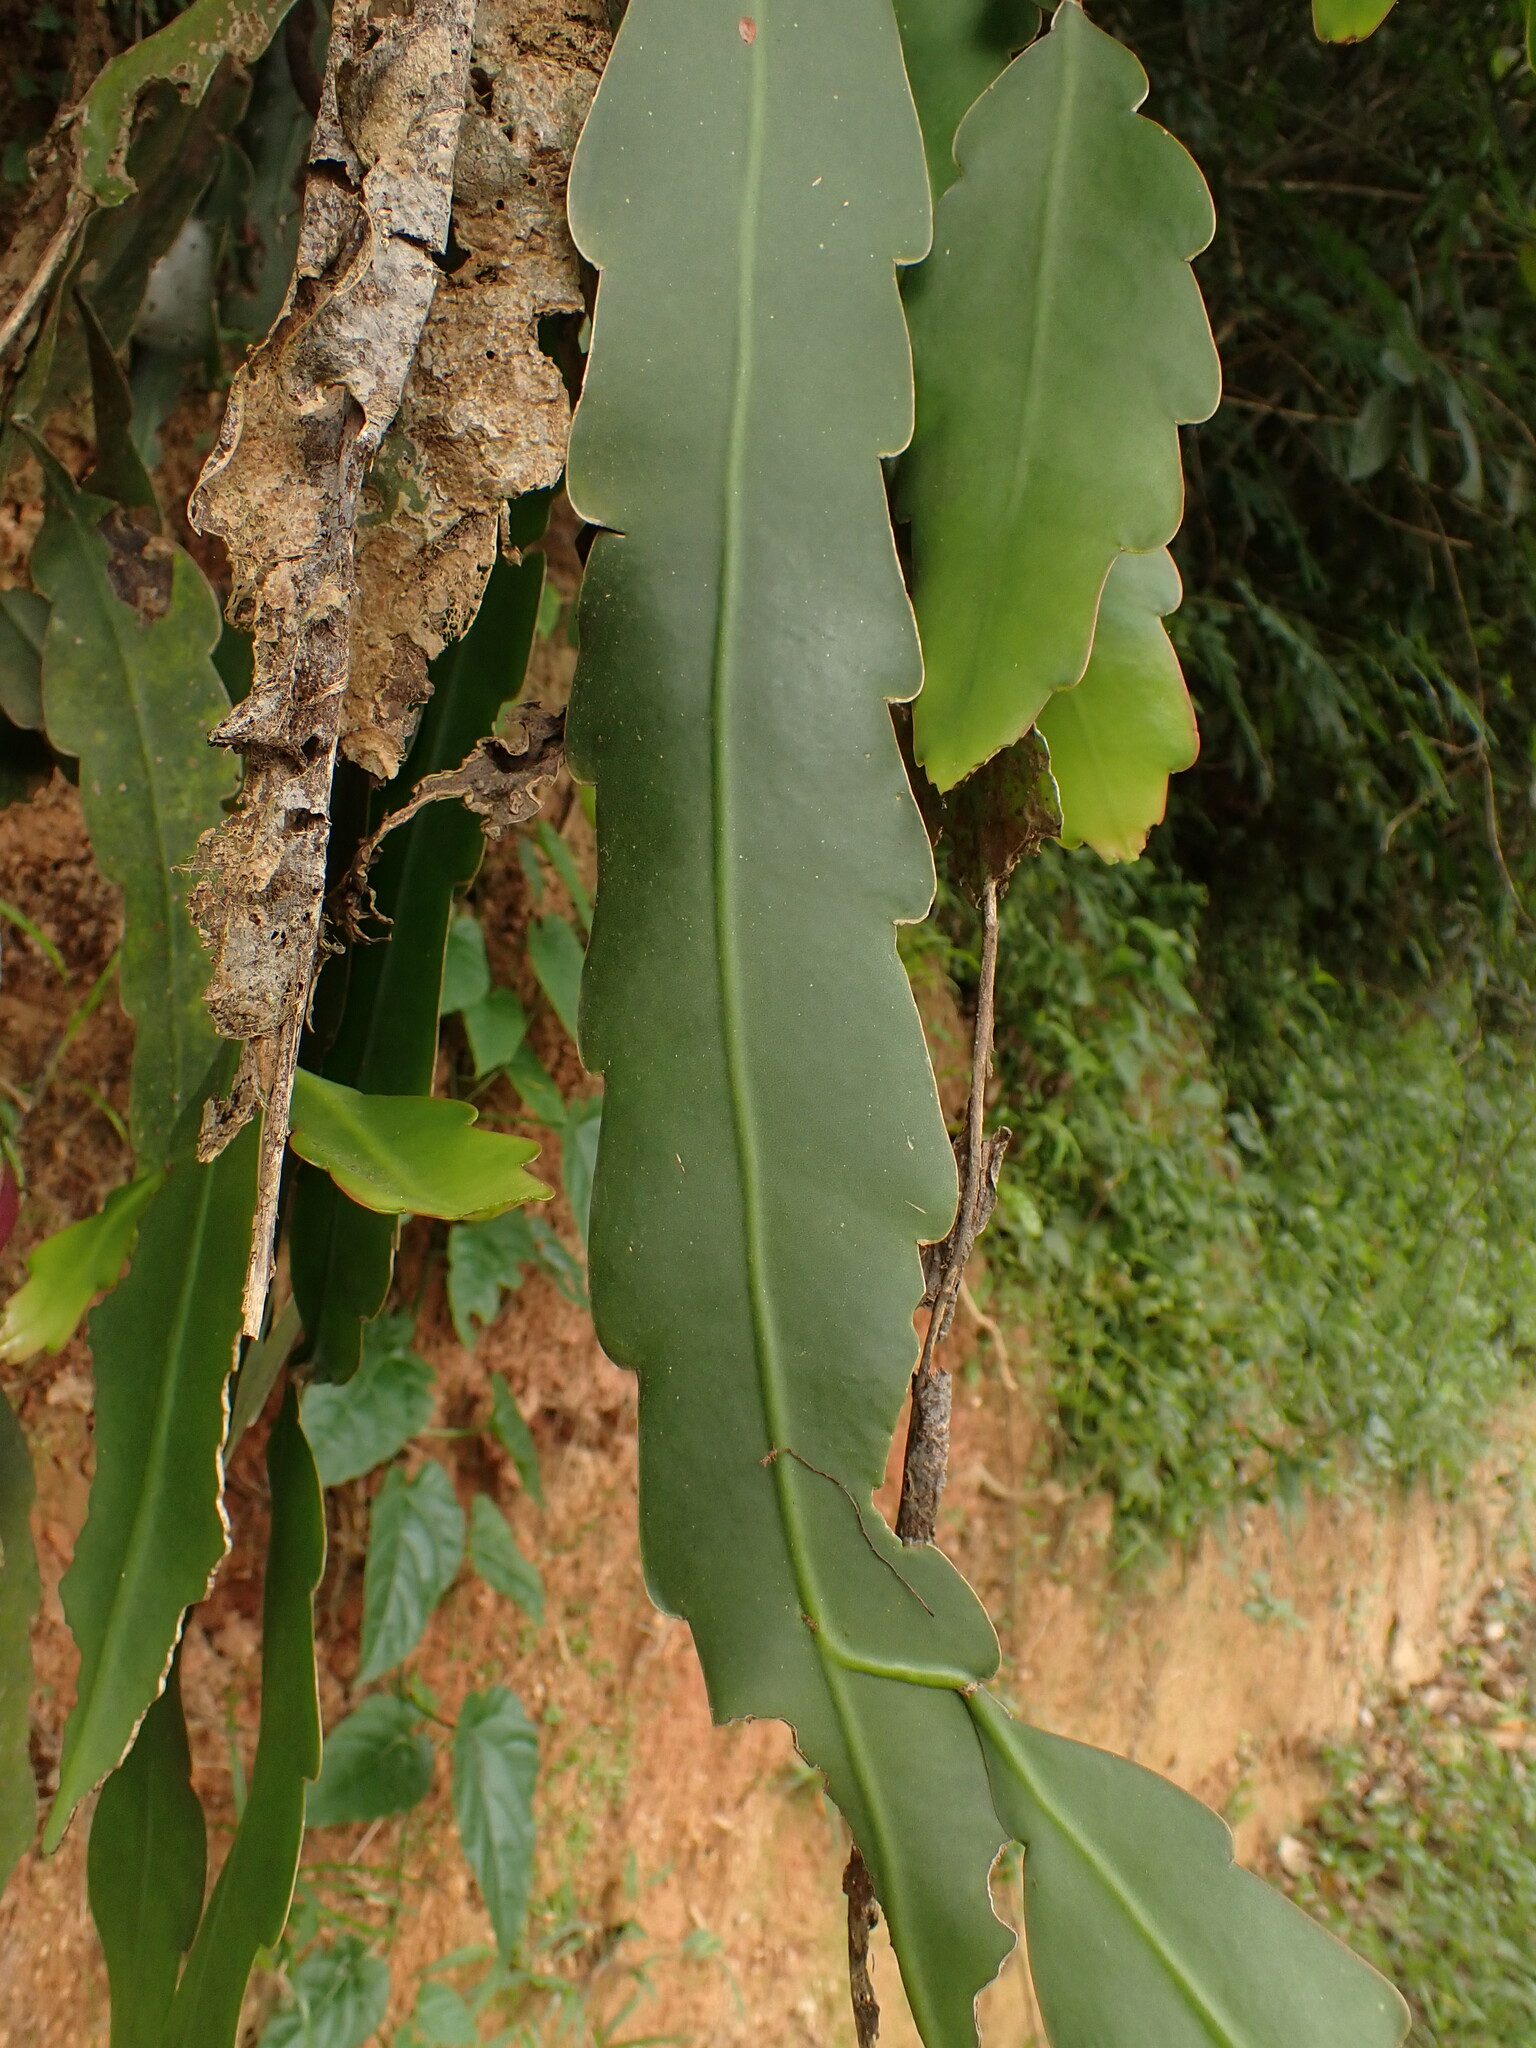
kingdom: Plantae
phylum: Tracheophyta
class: Magnoliopsida
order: Caryophyllales
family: Cactaceae
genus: Epiphyllum
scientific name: Epiphyllum phyllanthus
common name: Climbing cactus
